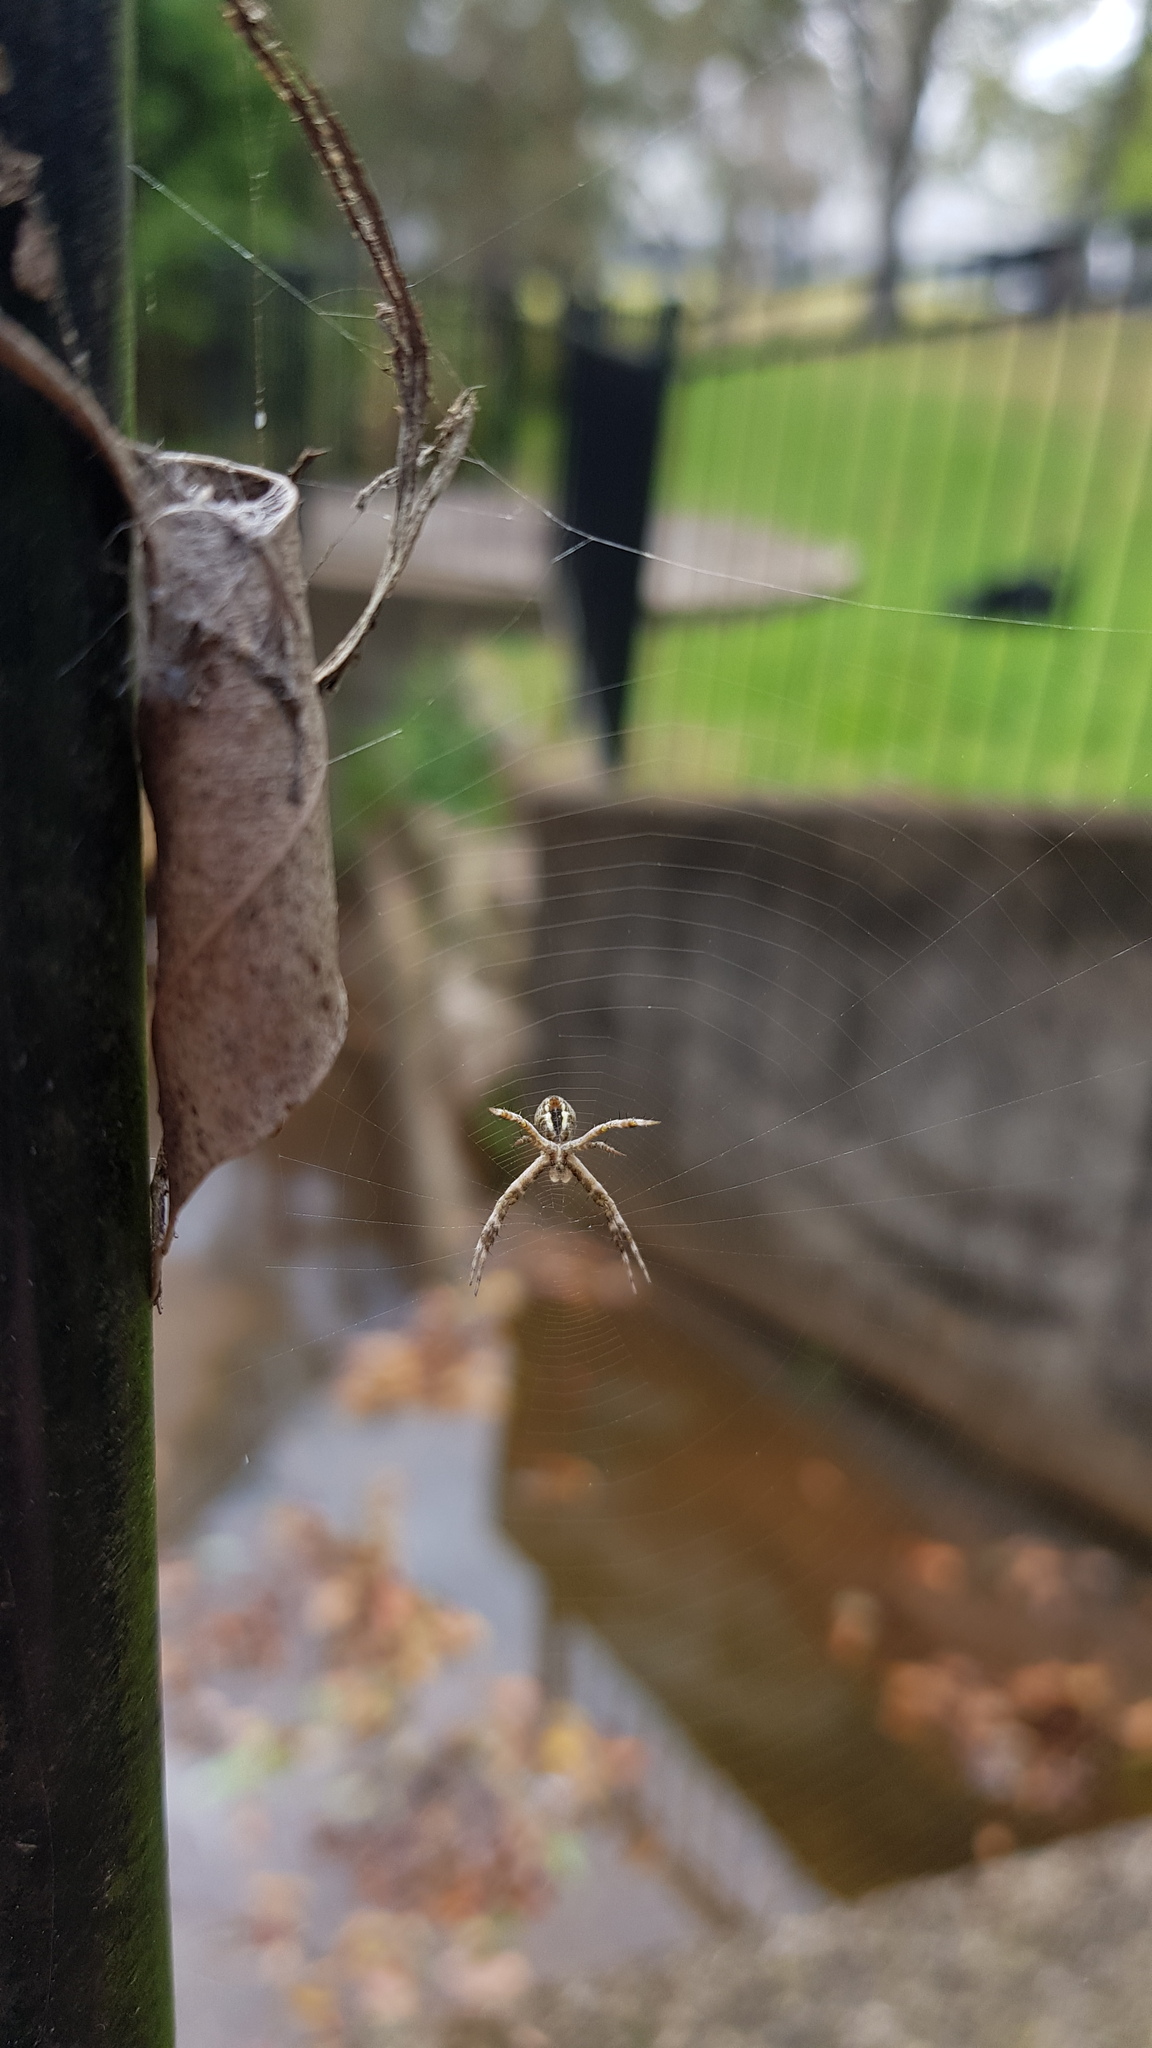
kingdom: Animalia
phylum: Arthropoda
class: Arachnida
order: Araneae
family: Araneidae
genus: Argiope
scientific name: Argiope keyserlingi
